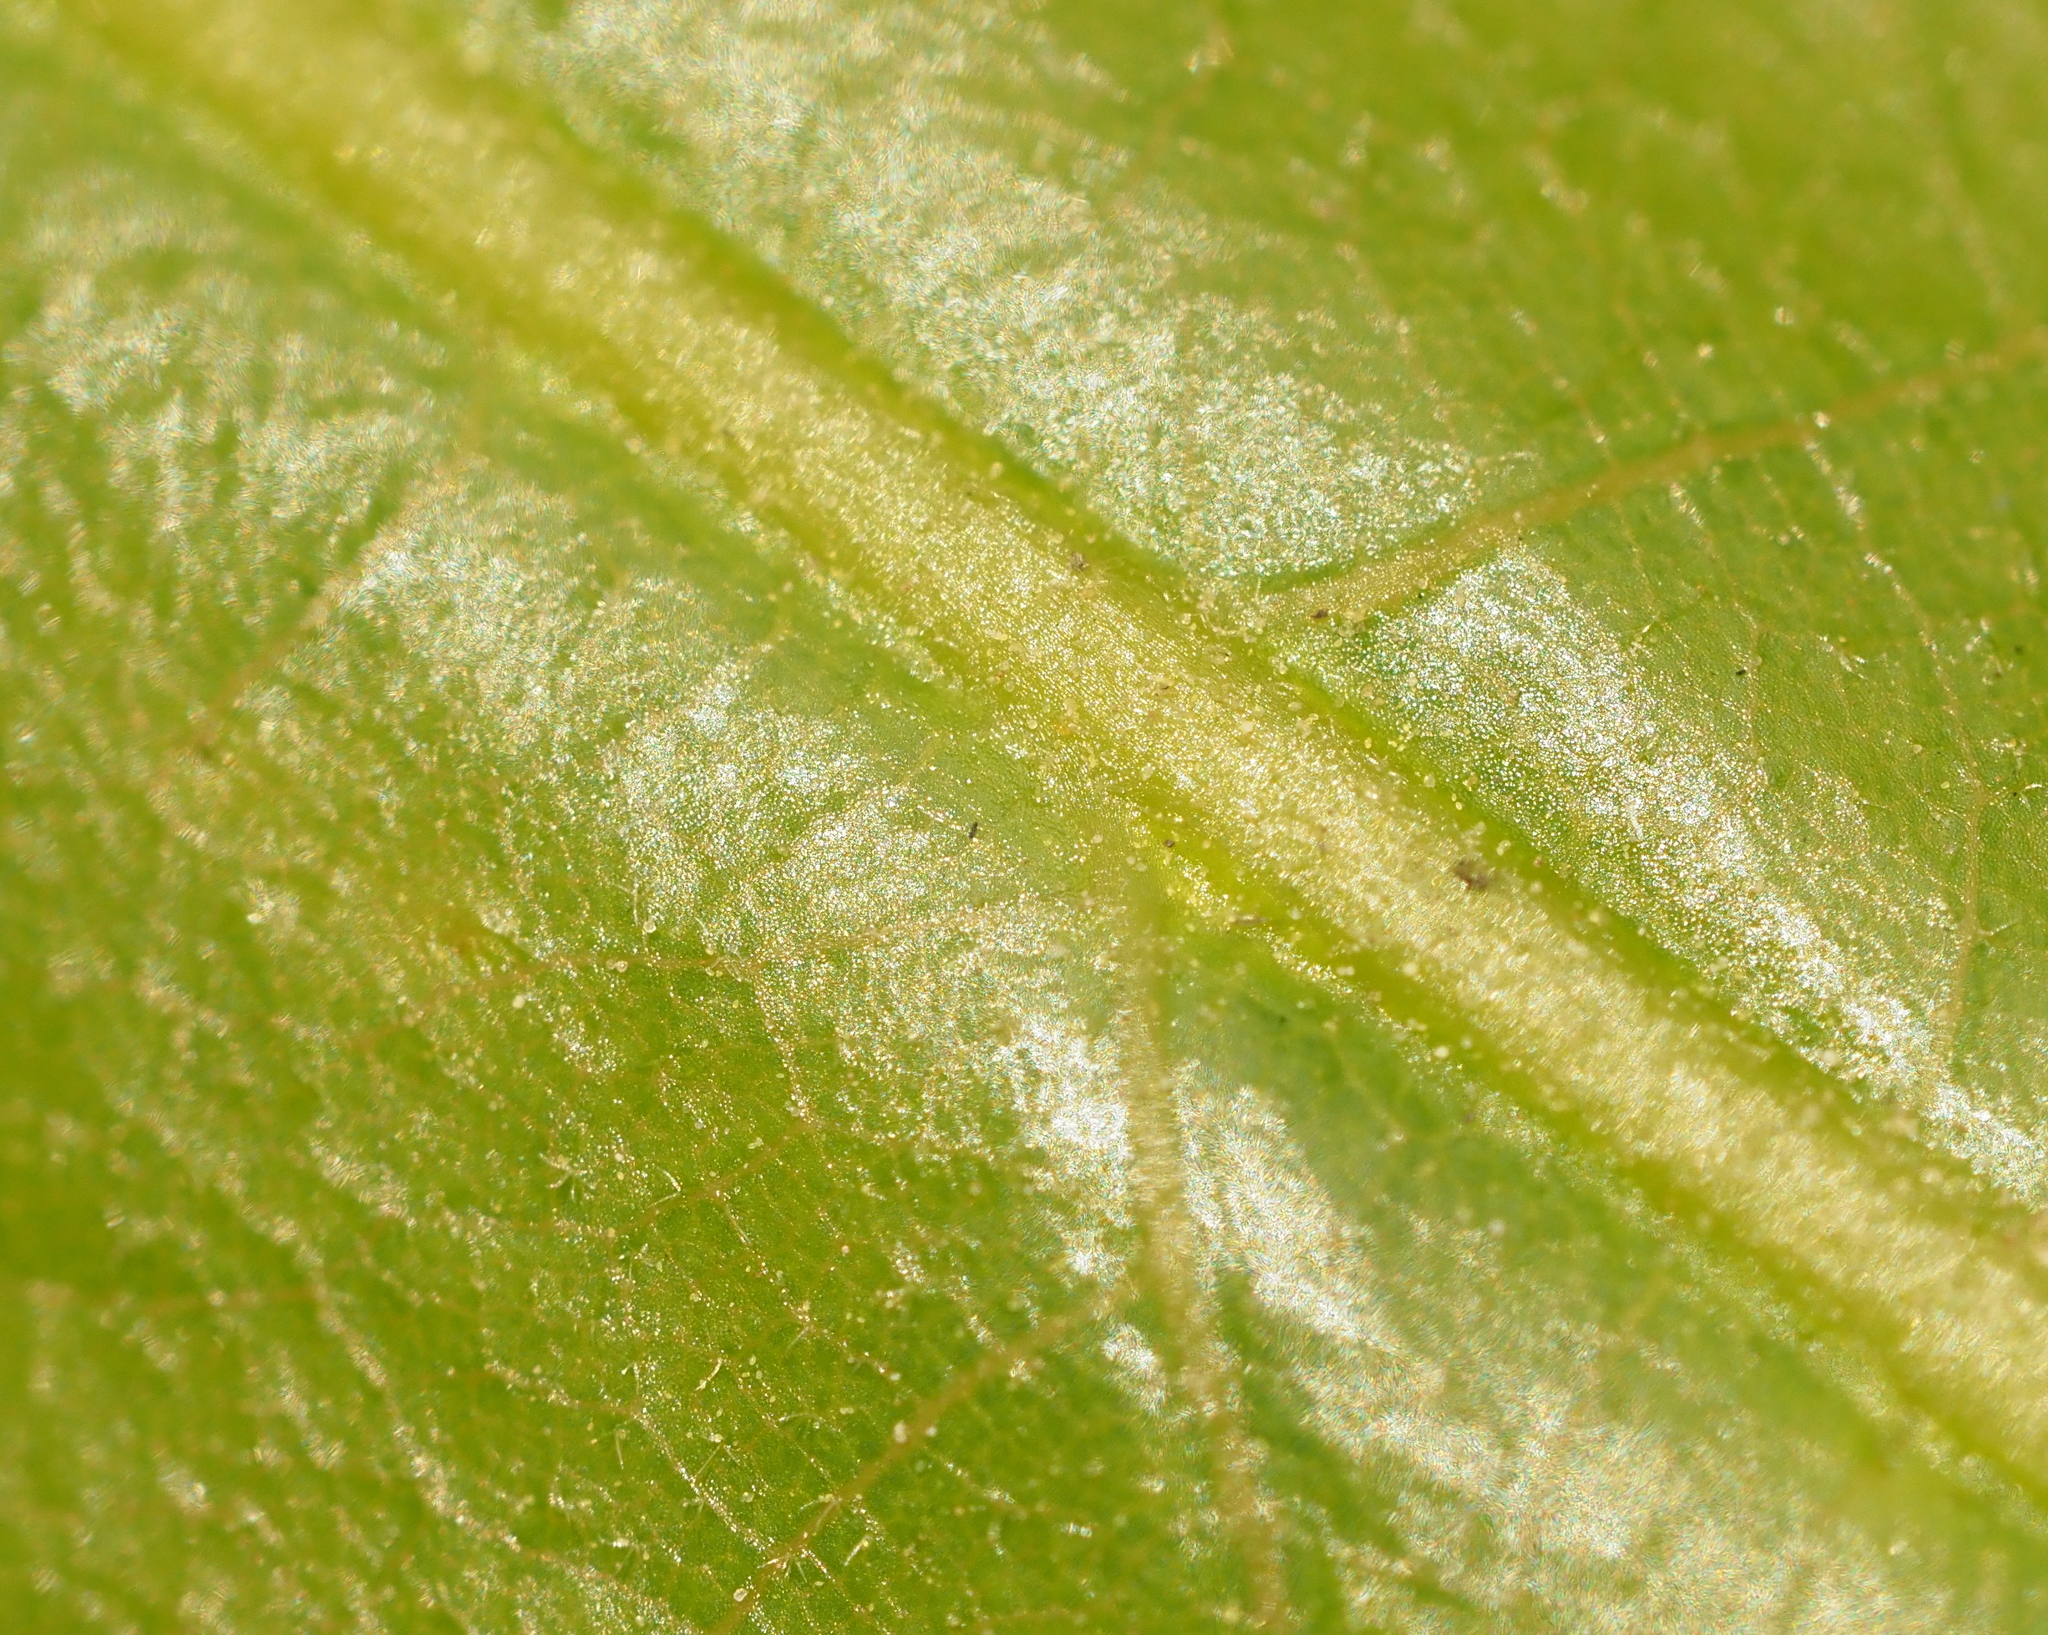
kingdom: Plantae
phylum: Tracheophyta
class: Magnoliopsida
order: Fagales
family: Fagaceae
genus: Quercus
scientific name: Quercus macrocarpa
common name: Bur oak
